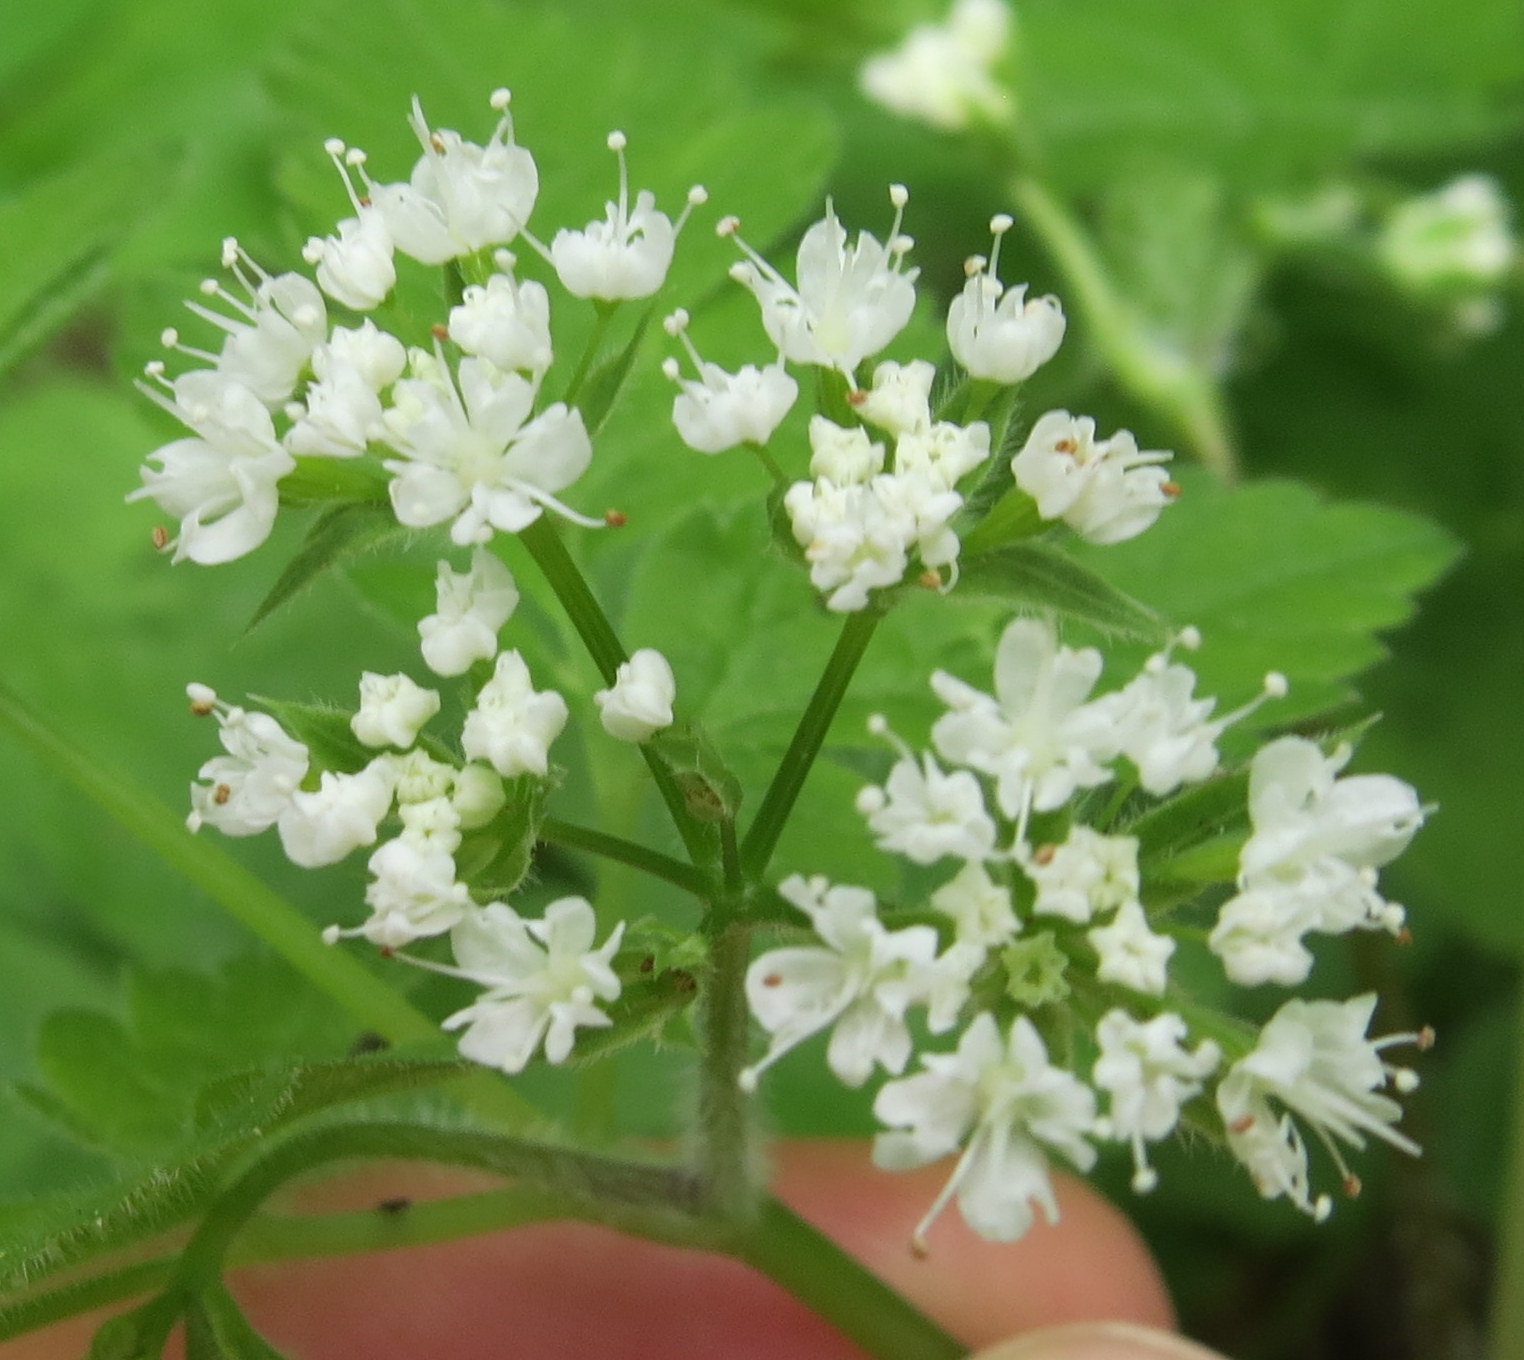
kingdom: Plantae
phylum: Tracheophyta
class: Magnoliopsida
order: Apiales
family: Apiaceae
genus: Osmorhiza
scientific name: Osmorhiza longistylis
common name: Smooth sweet cicely
